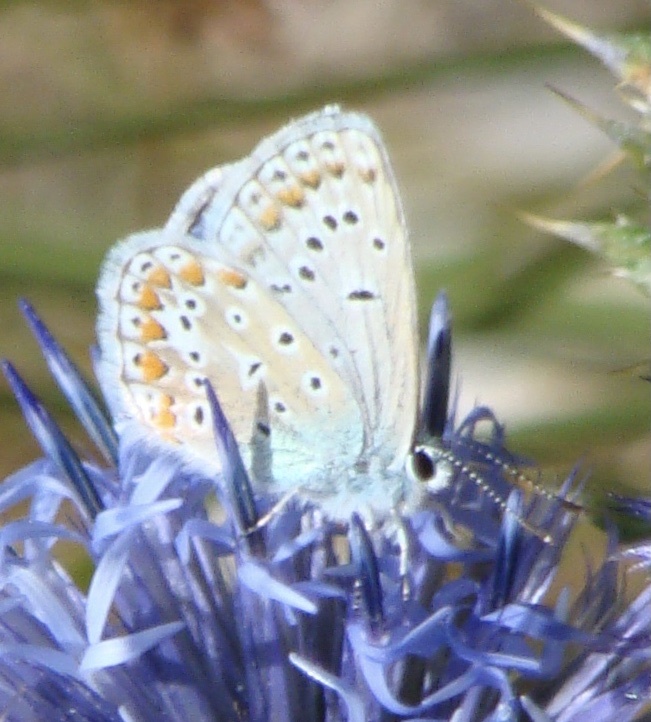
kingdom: Animalia
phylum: Arthropoda
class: Insecta
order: Lepidoptera
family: Lycaenidae
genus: Lysandra
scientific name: Lysandra coridon
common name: Chalkhill blue
